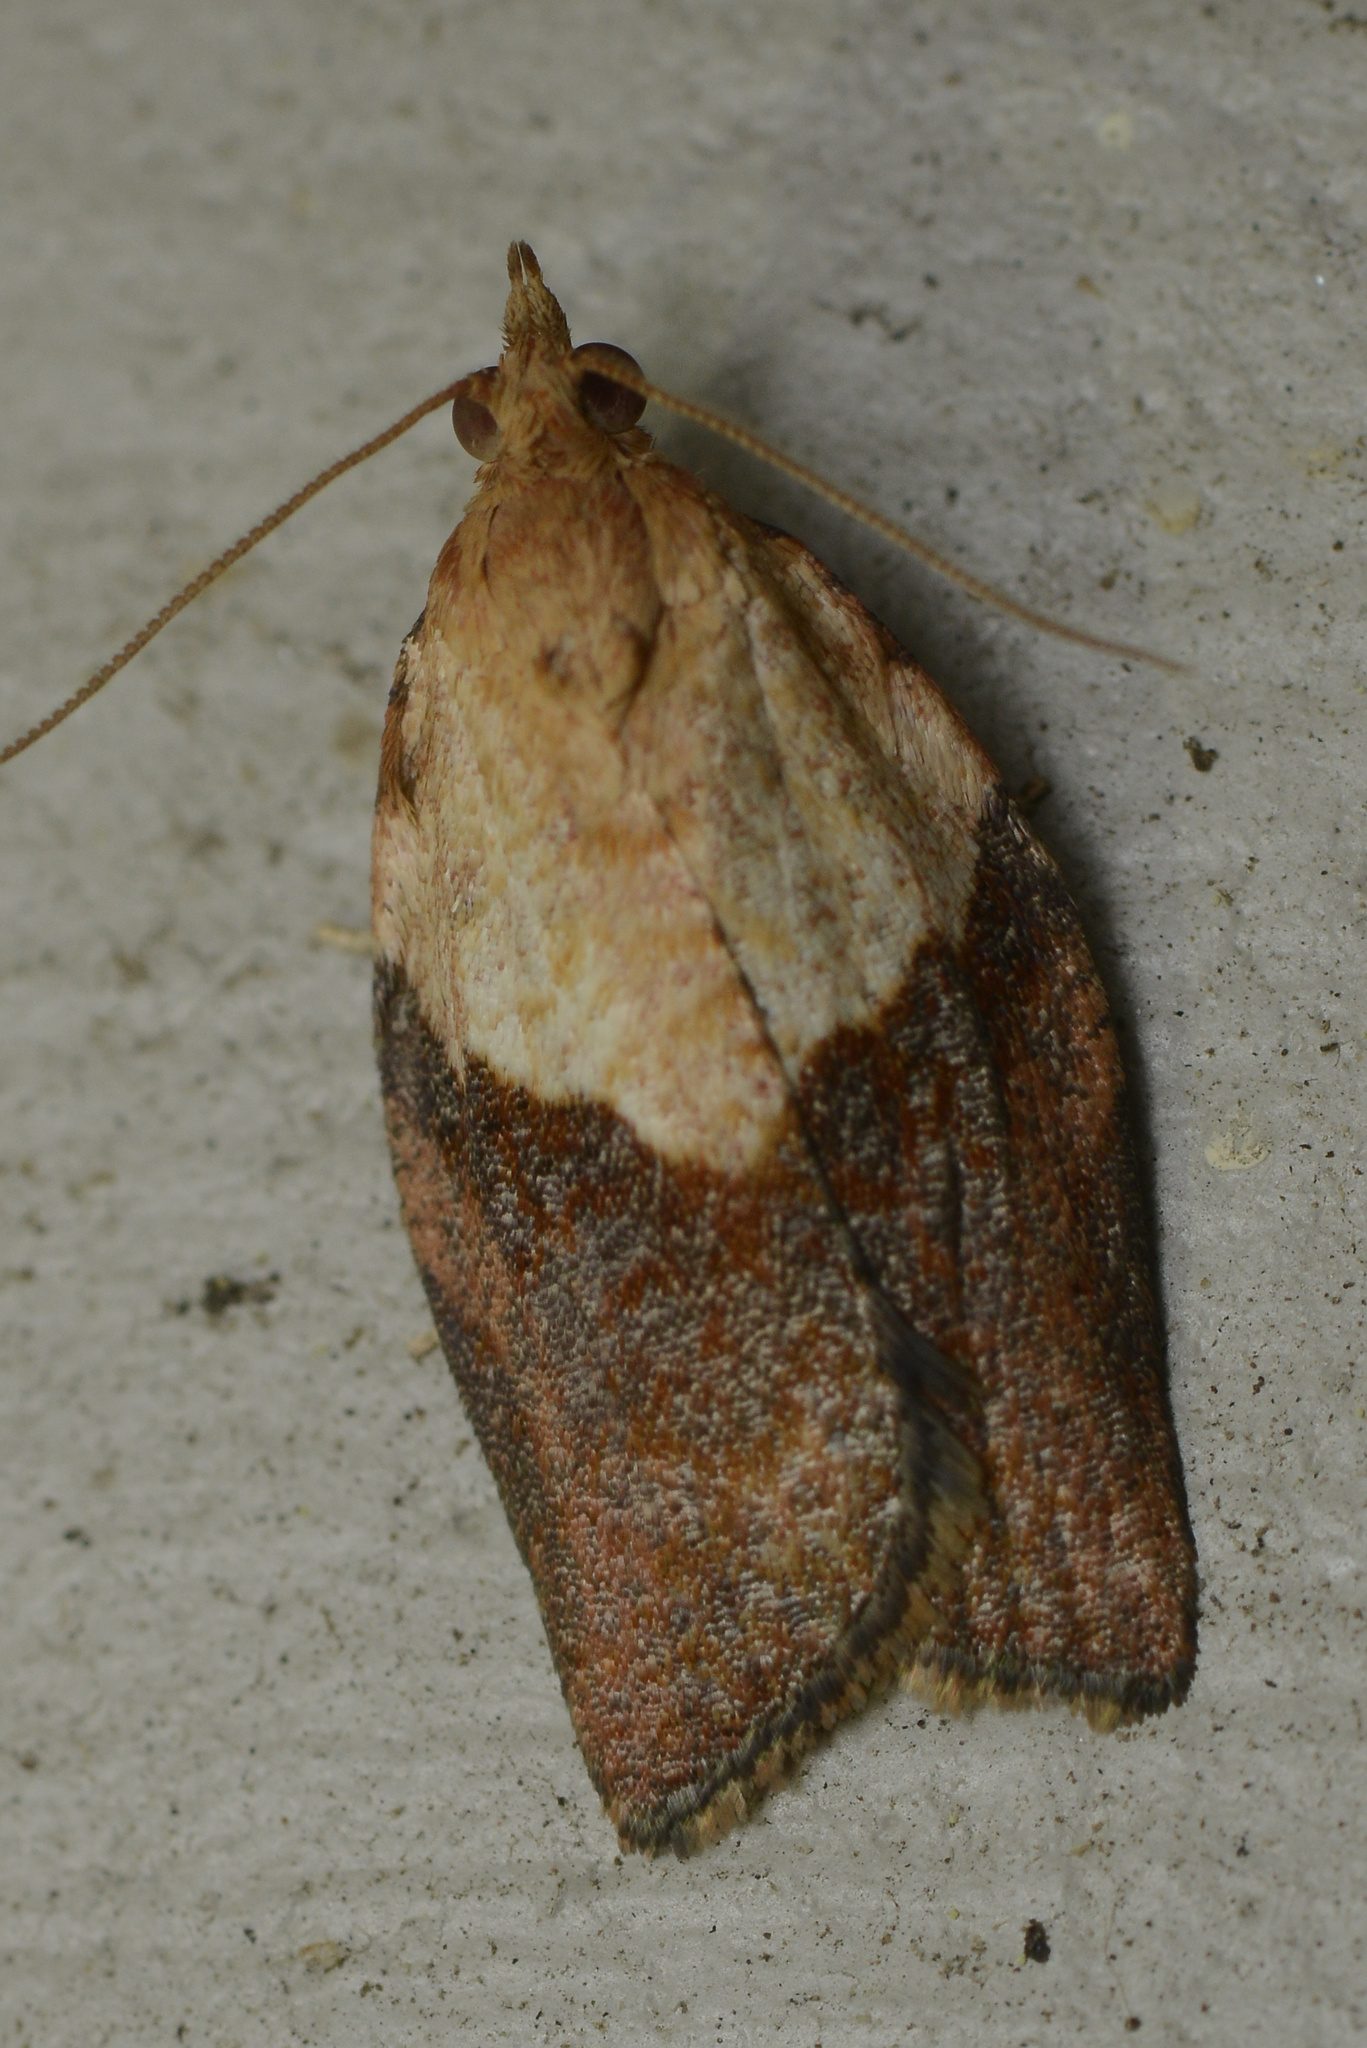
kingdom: Animalia
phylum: Arthropoda
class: Insecta
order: Lepidoptera
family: Tortricidae
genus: Epiphyas
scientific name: Epiphyas postvittana
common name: Light brown apple moth
